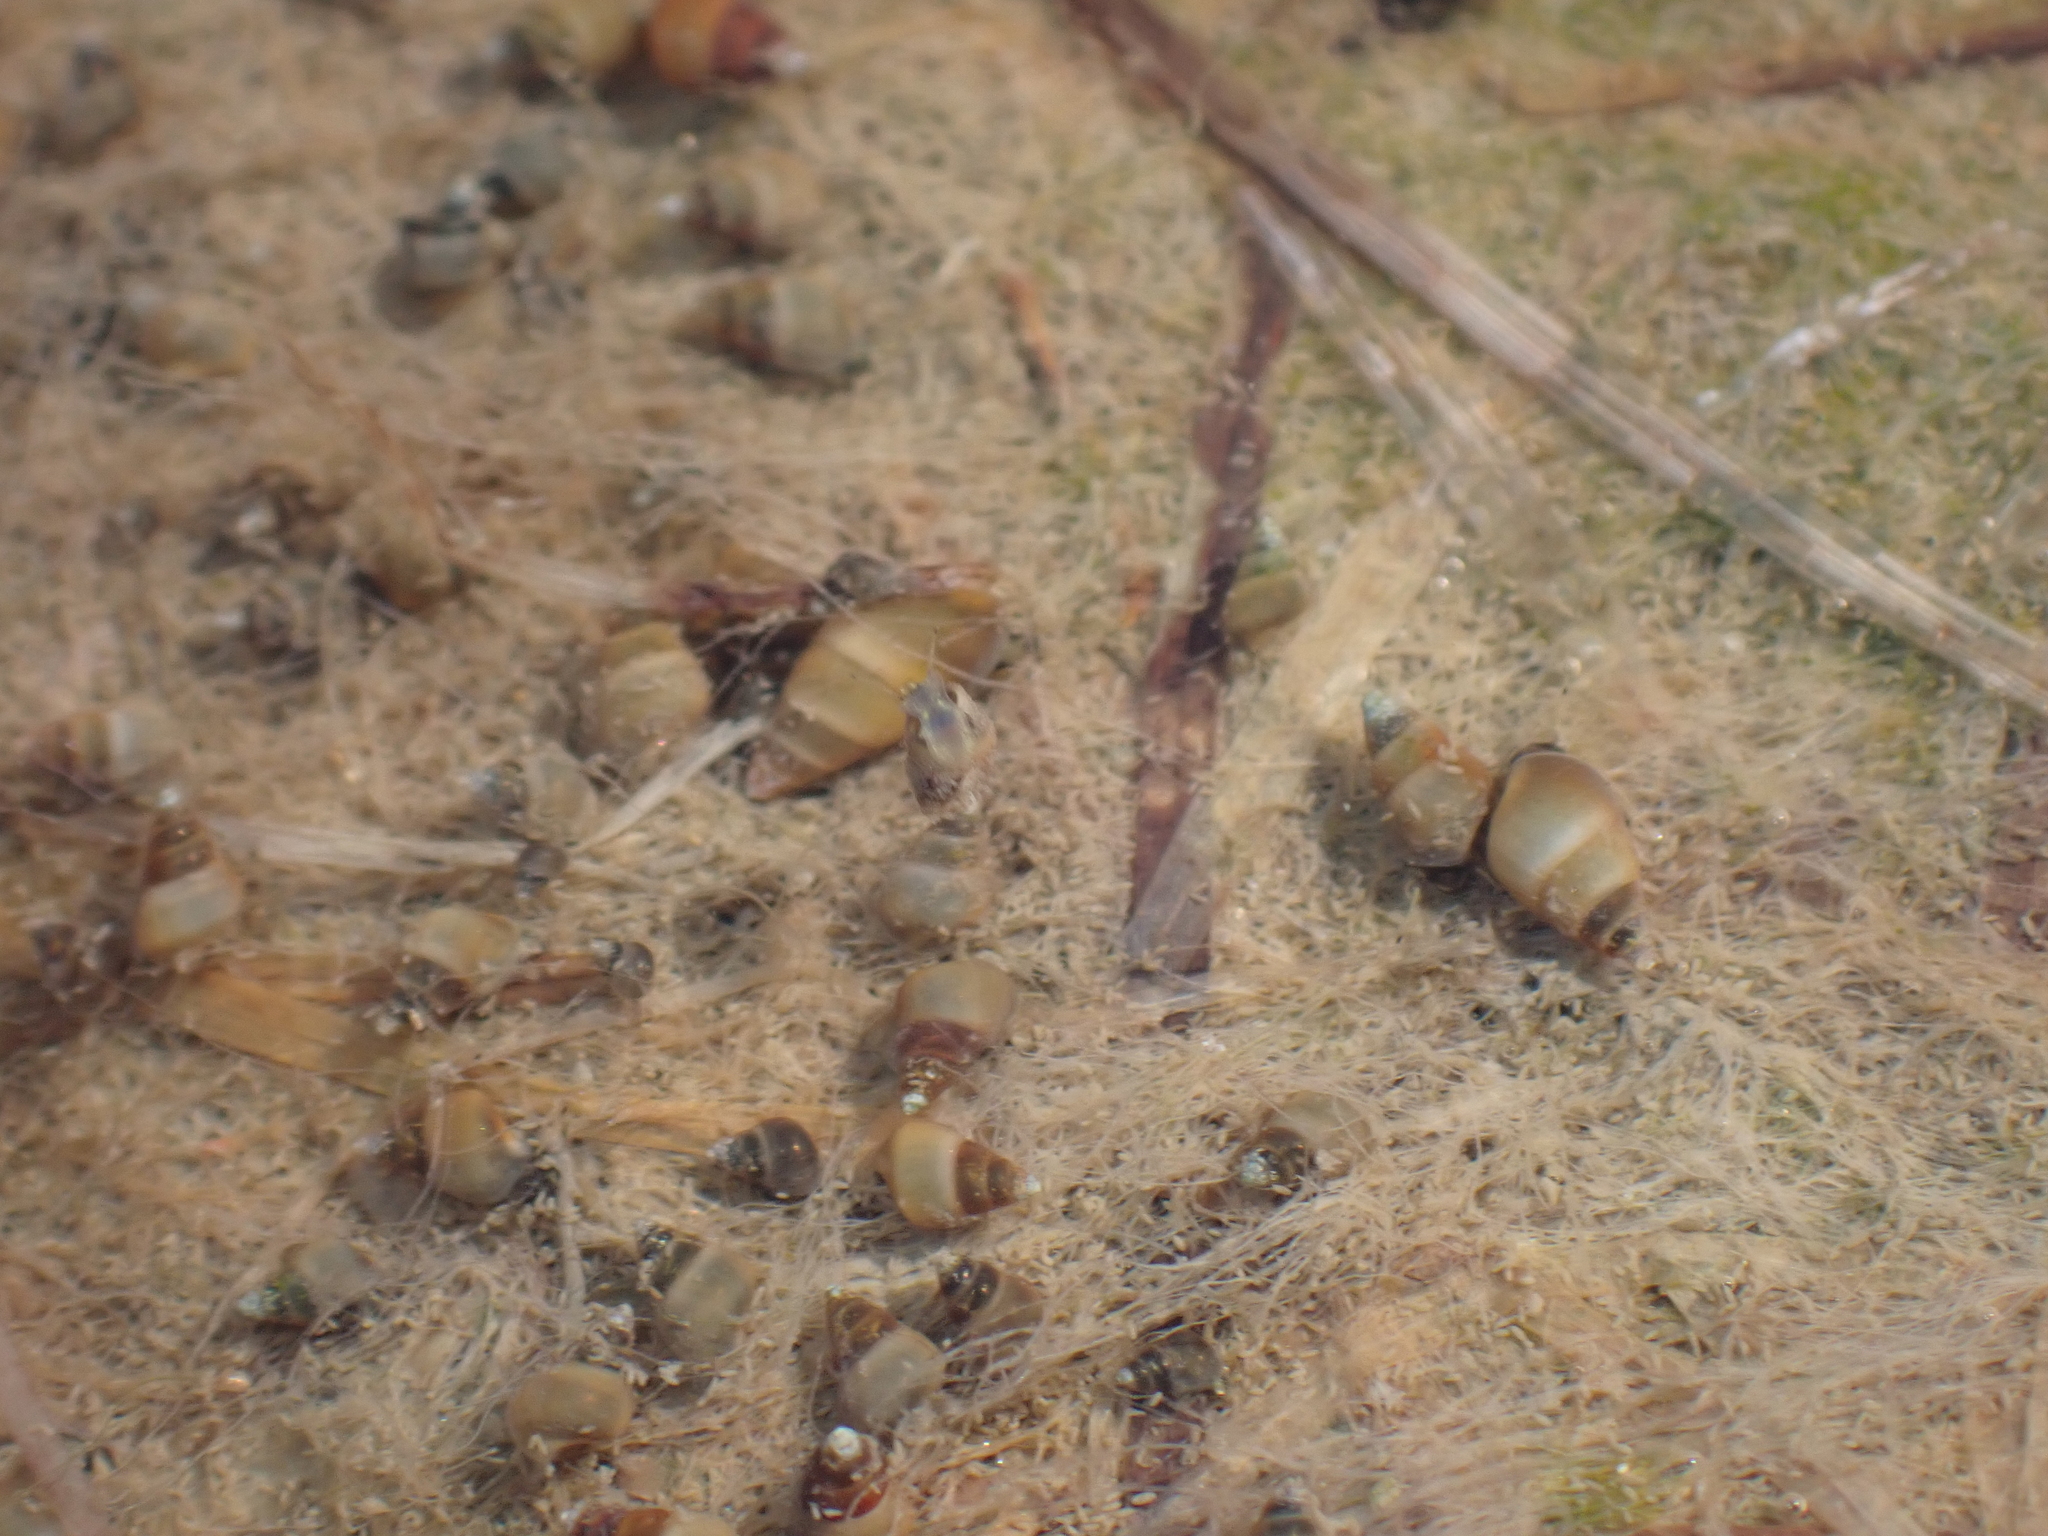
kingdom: Animalia
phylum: Mollusca
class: Gastropoda
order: Littorinimorpha
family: Hydrobiidae
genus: Peringia
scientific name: Peringia ulvae
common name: Laver spire shell
